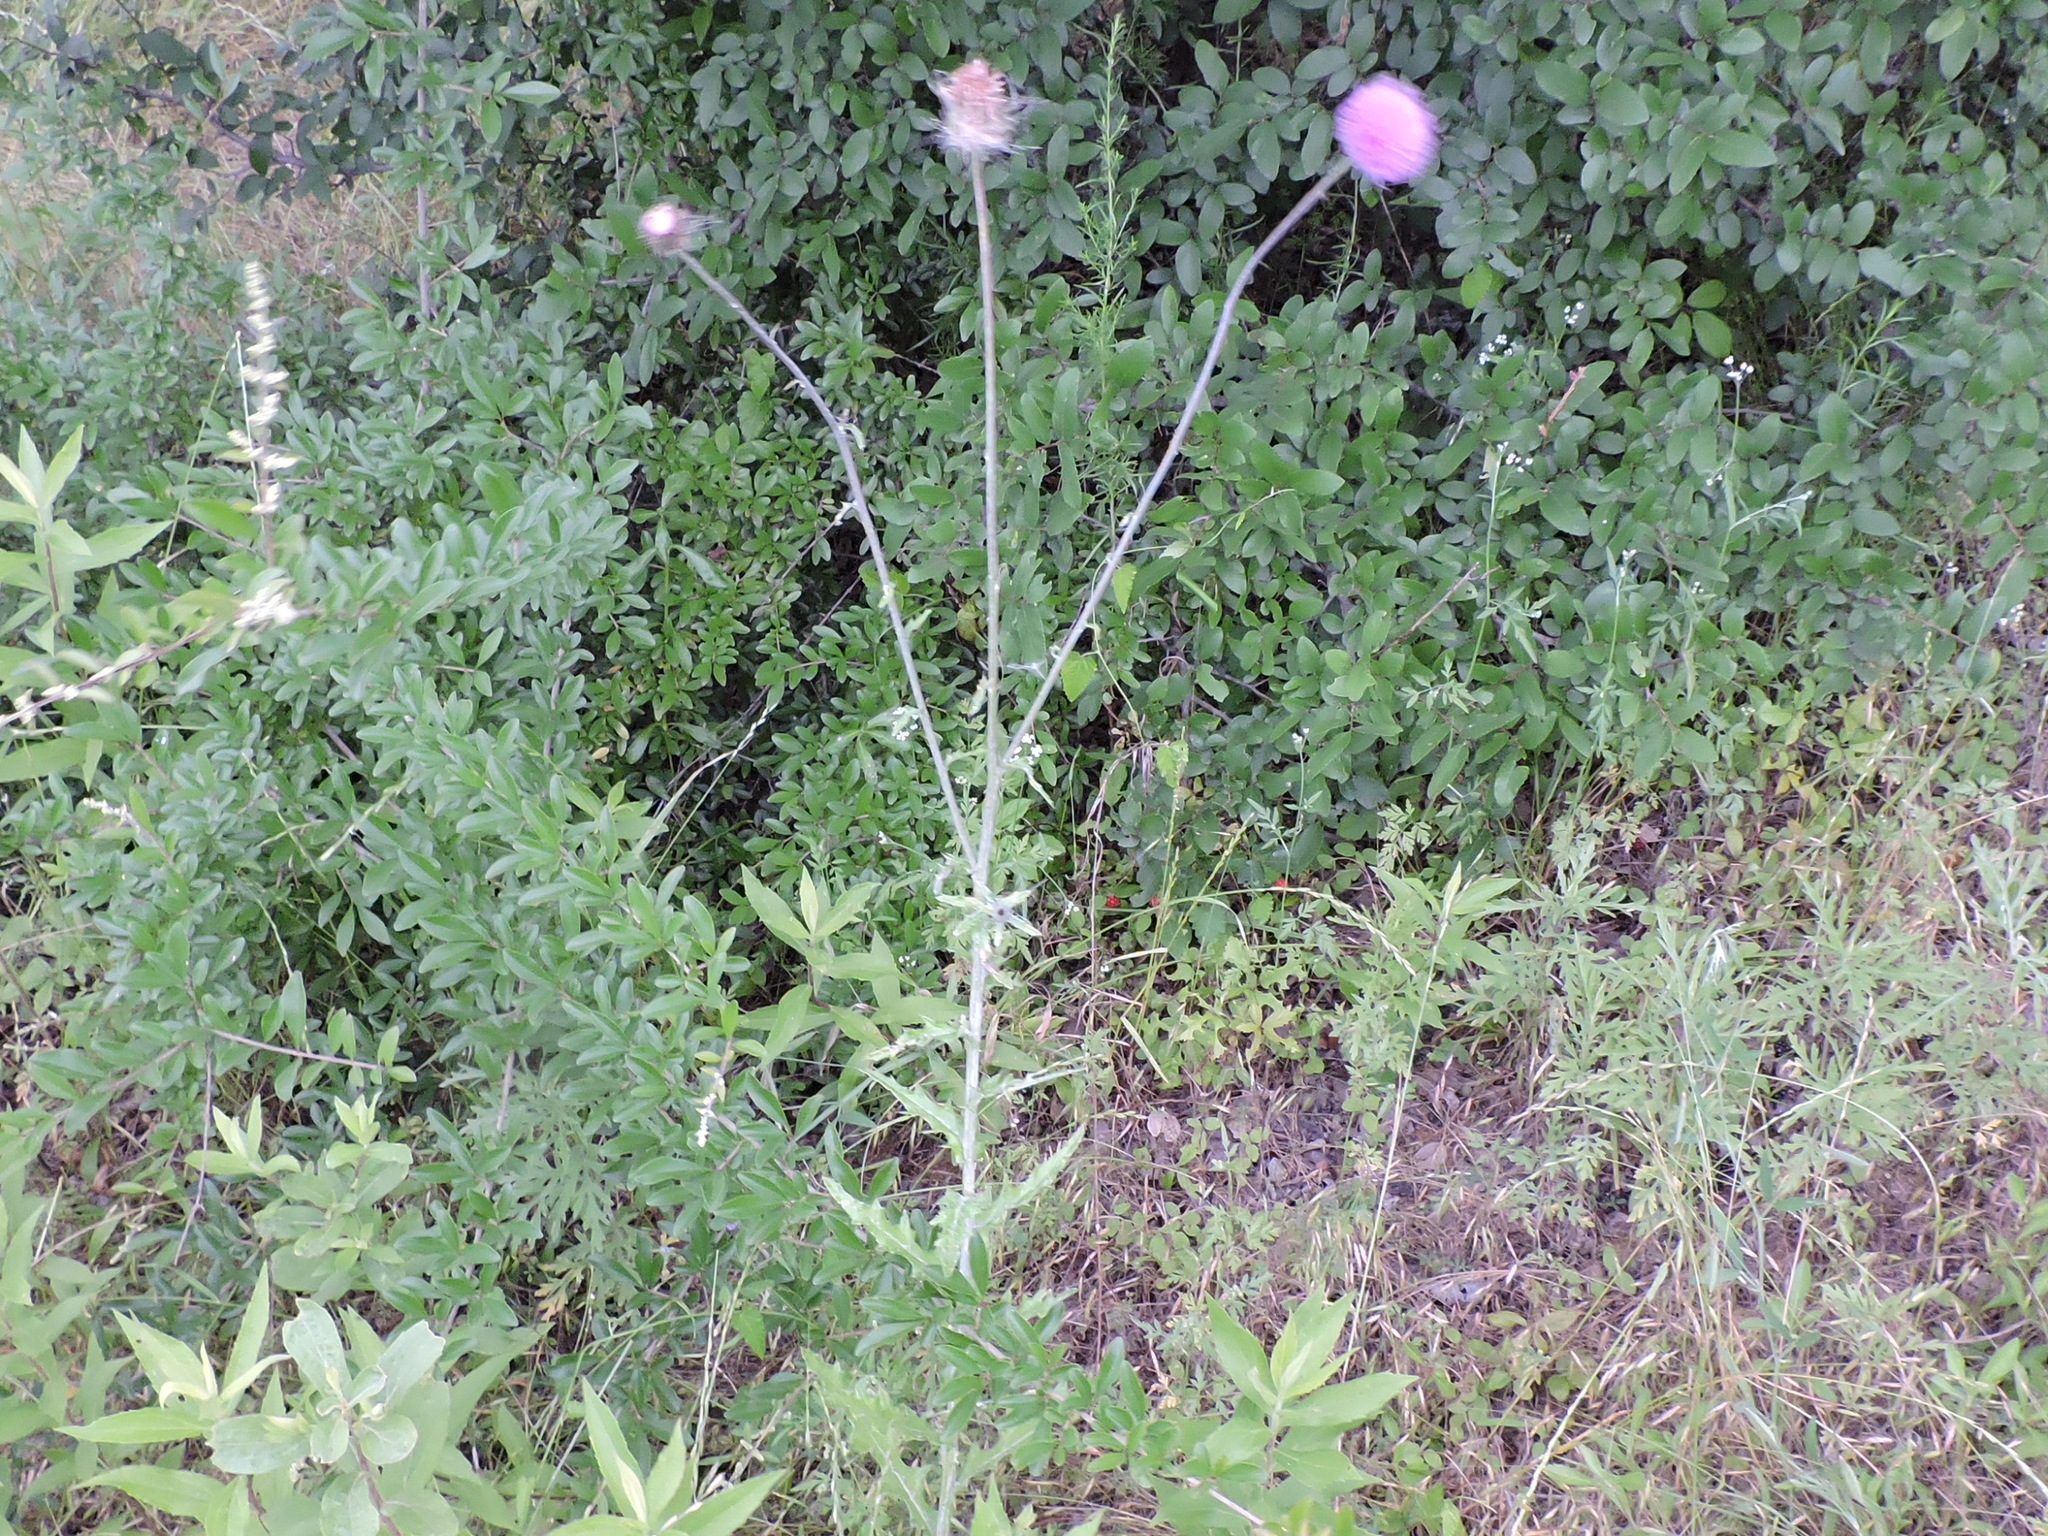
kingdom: Plantae
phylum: Tracheophyta
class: Magnoliopsida
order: Asterales
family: Asteraceae
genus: Cirsium
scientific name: Cirsium texanum
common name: Texas purple thistle
